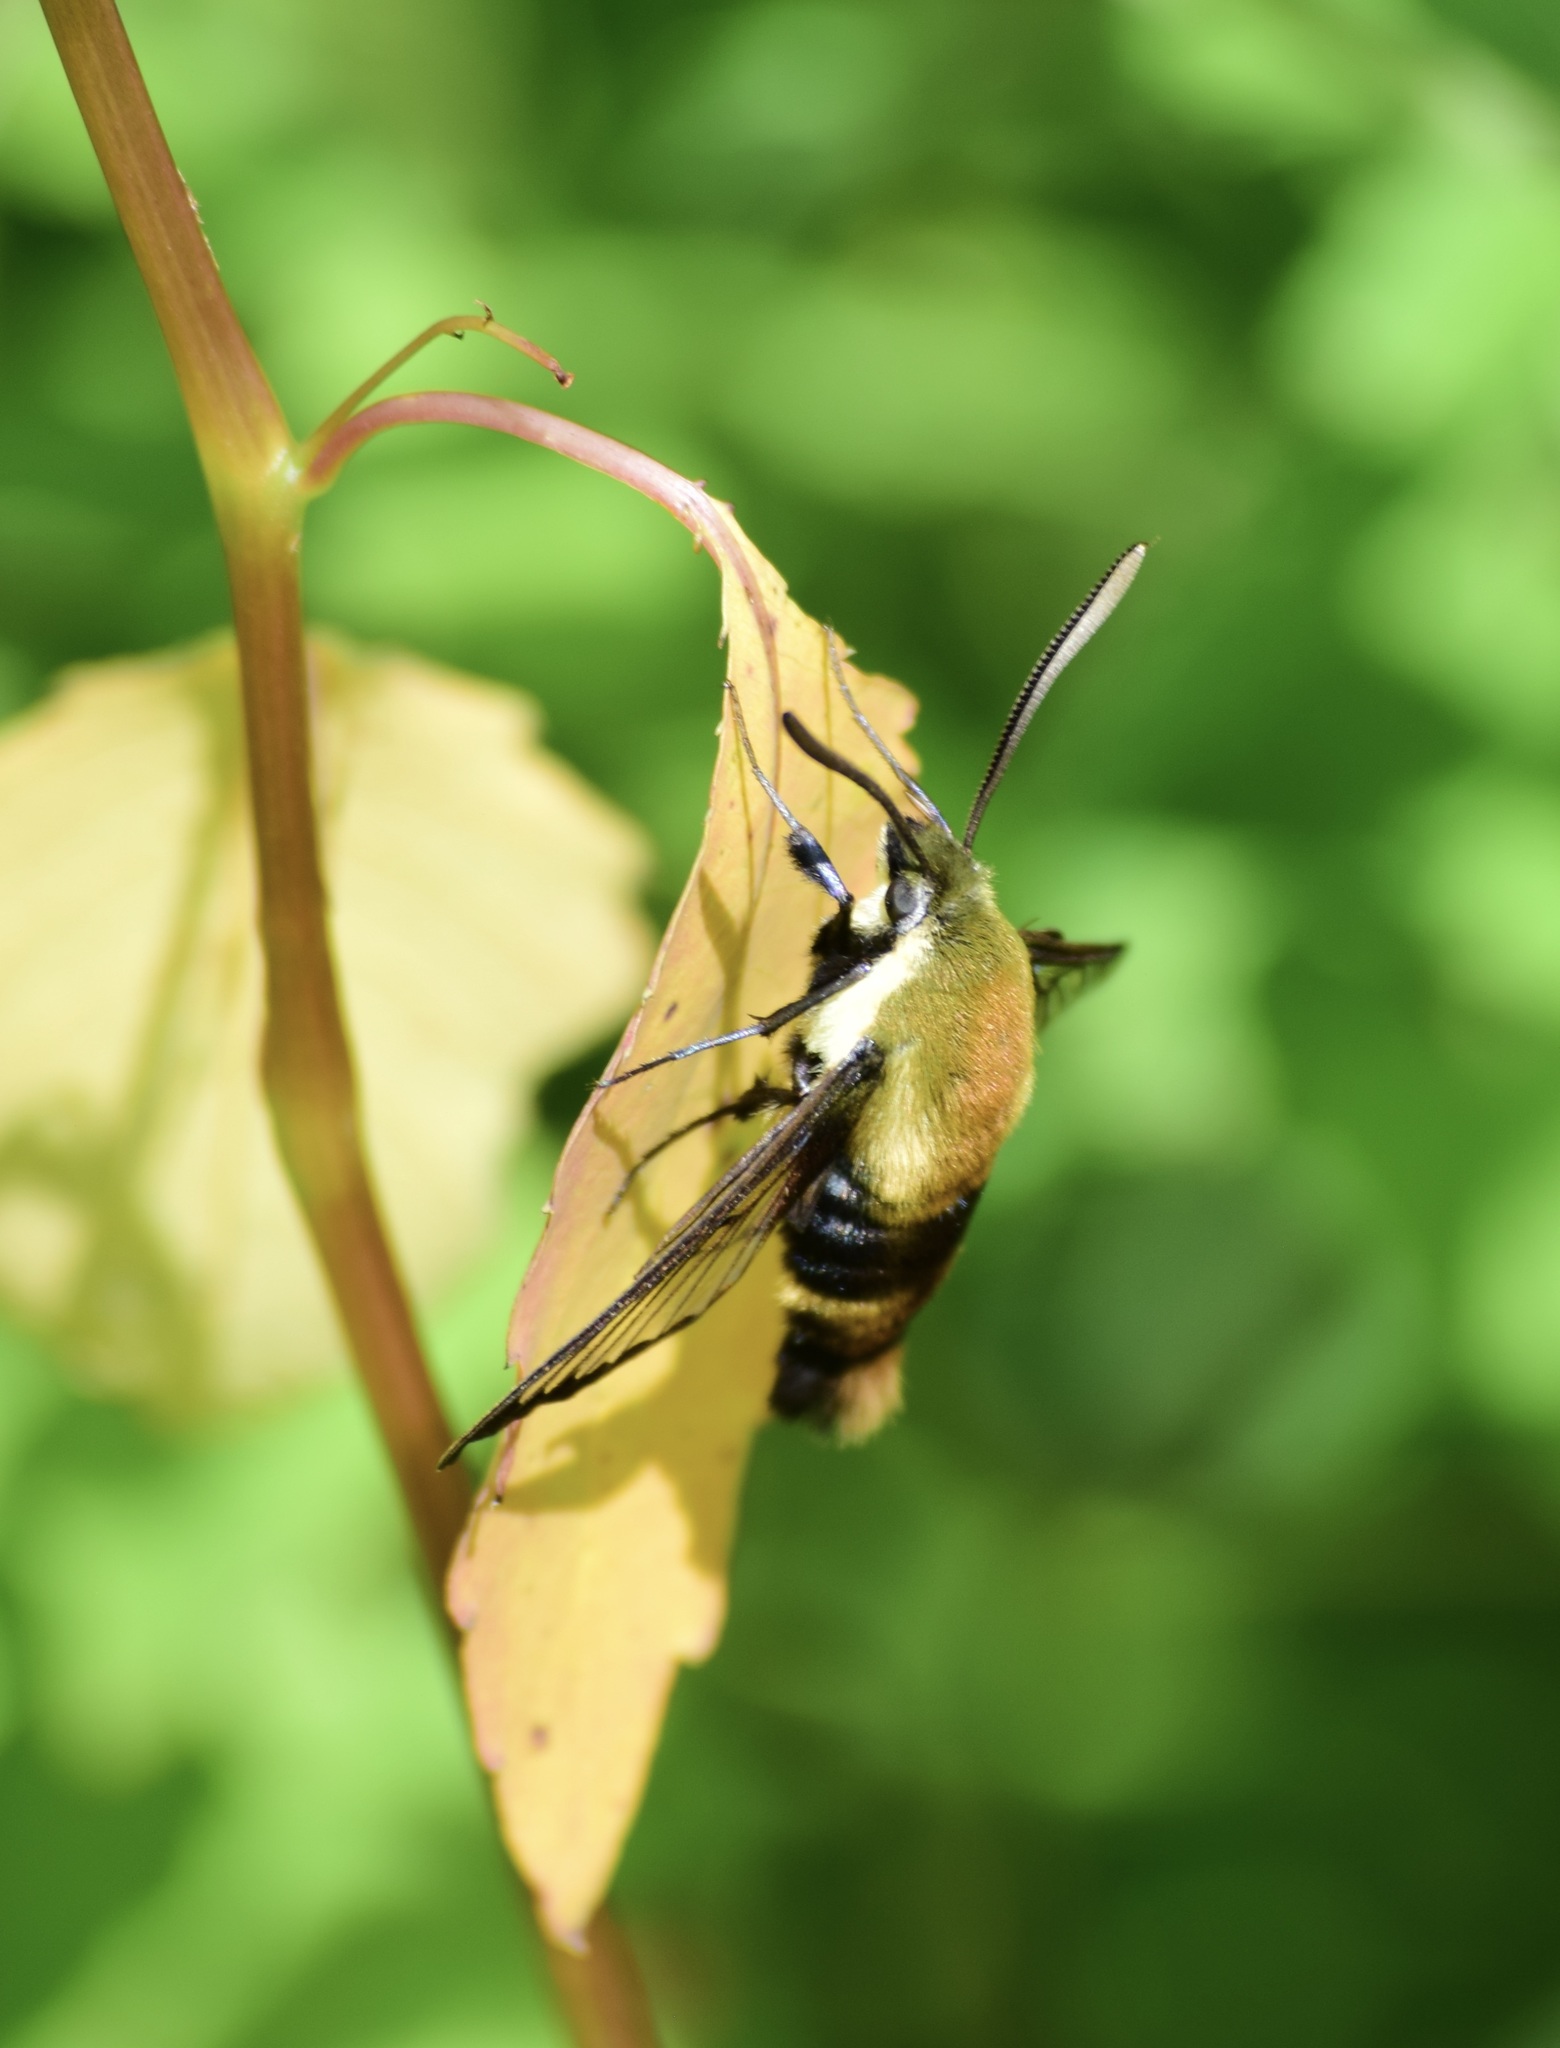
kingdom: Animalia
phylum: Arthropoda
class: Insecta
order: Lepidoptera
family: Sphingidae
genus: Hemaris
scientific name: Hemaris diffinis
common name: Bumblebee moth
